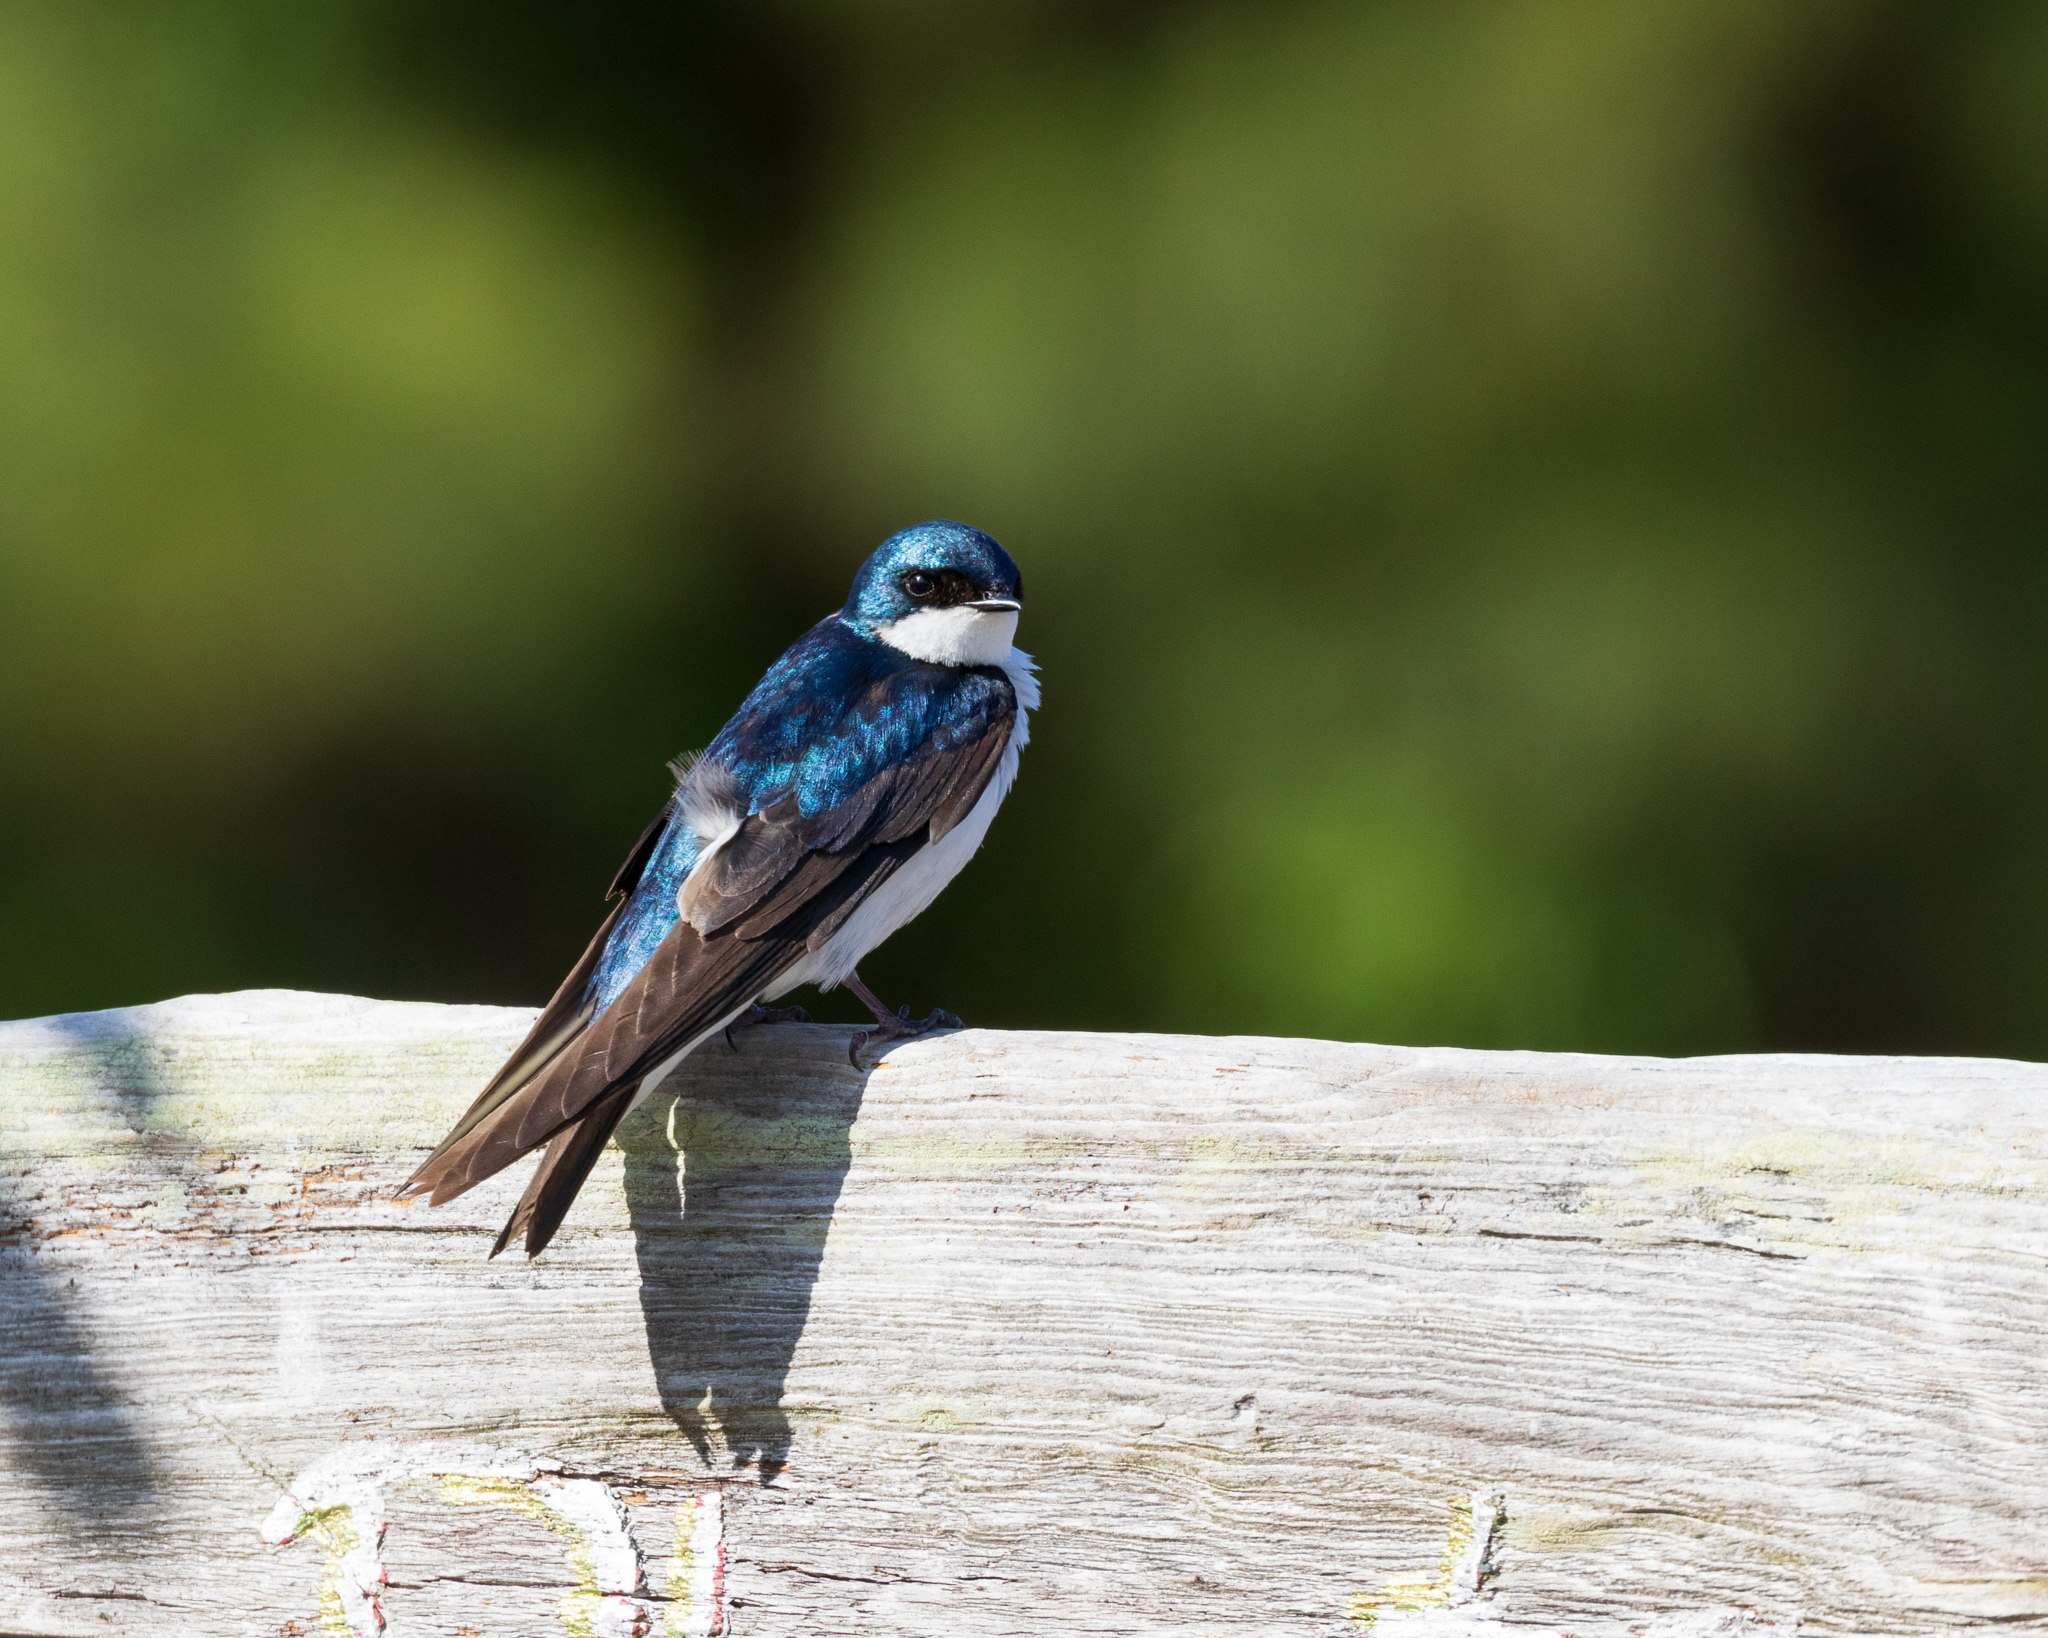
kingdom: Animalia
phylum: Chordata
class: Aves
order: Passeriformes
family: Hirundinidae
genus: Tachycineta
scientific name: Tachycineta bicolor
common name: Tree swallow
